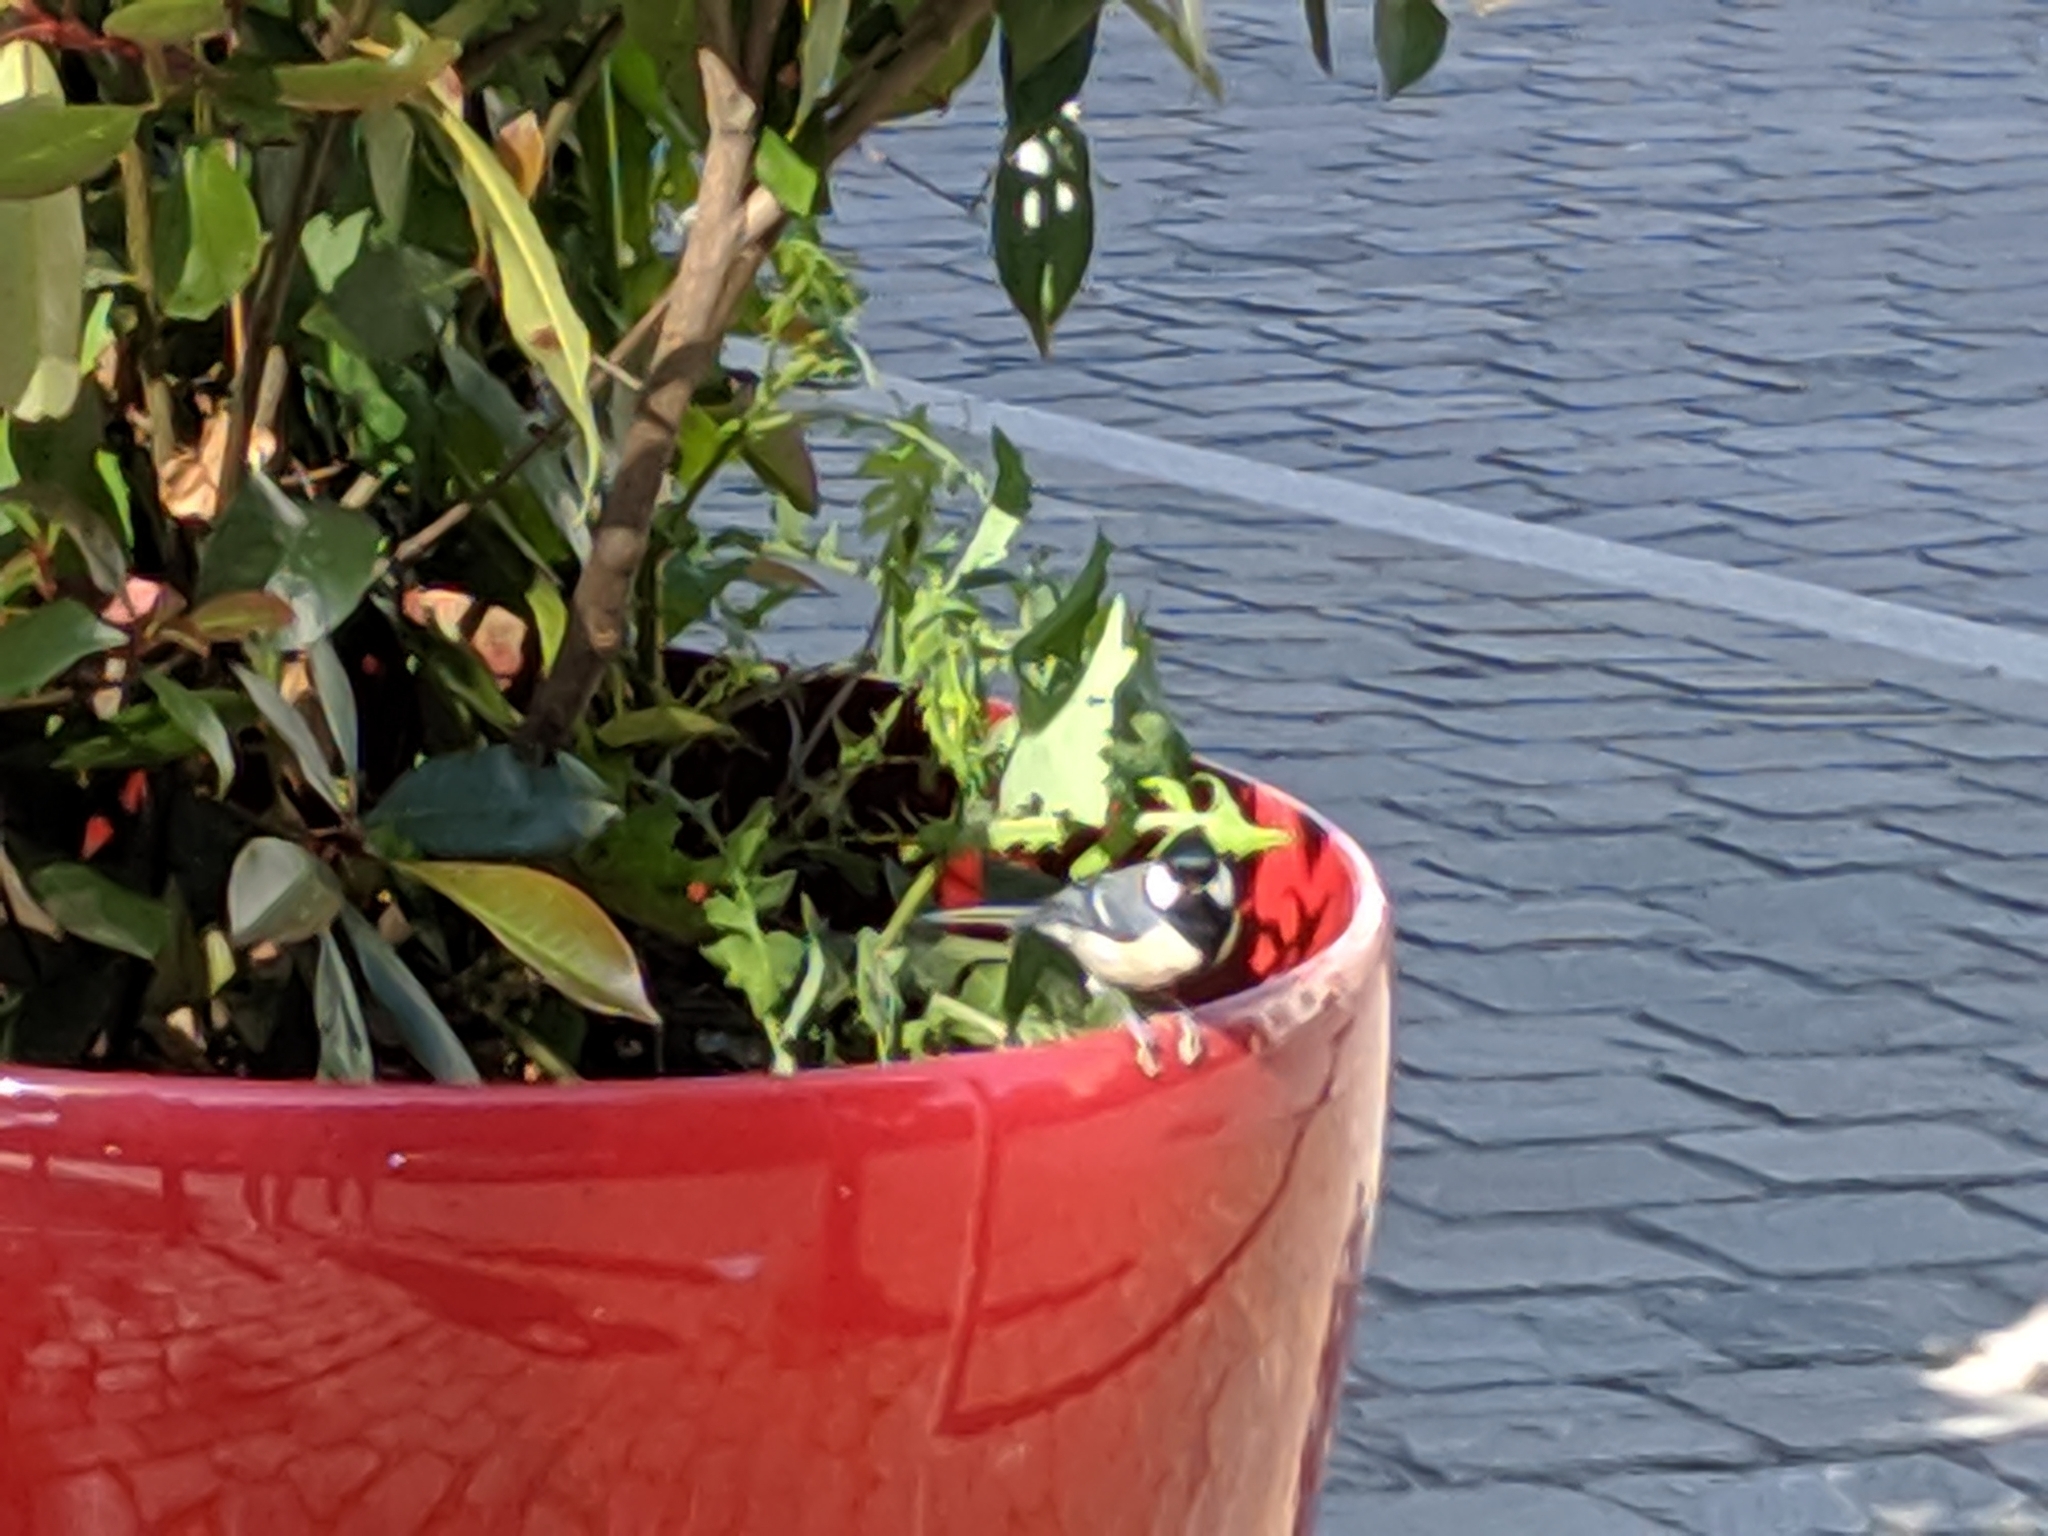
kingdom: Animalia
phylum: Chordata
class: Aves
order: Passeriformes
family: Paridae
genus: Parus
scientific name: Parus major
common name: Great tit
